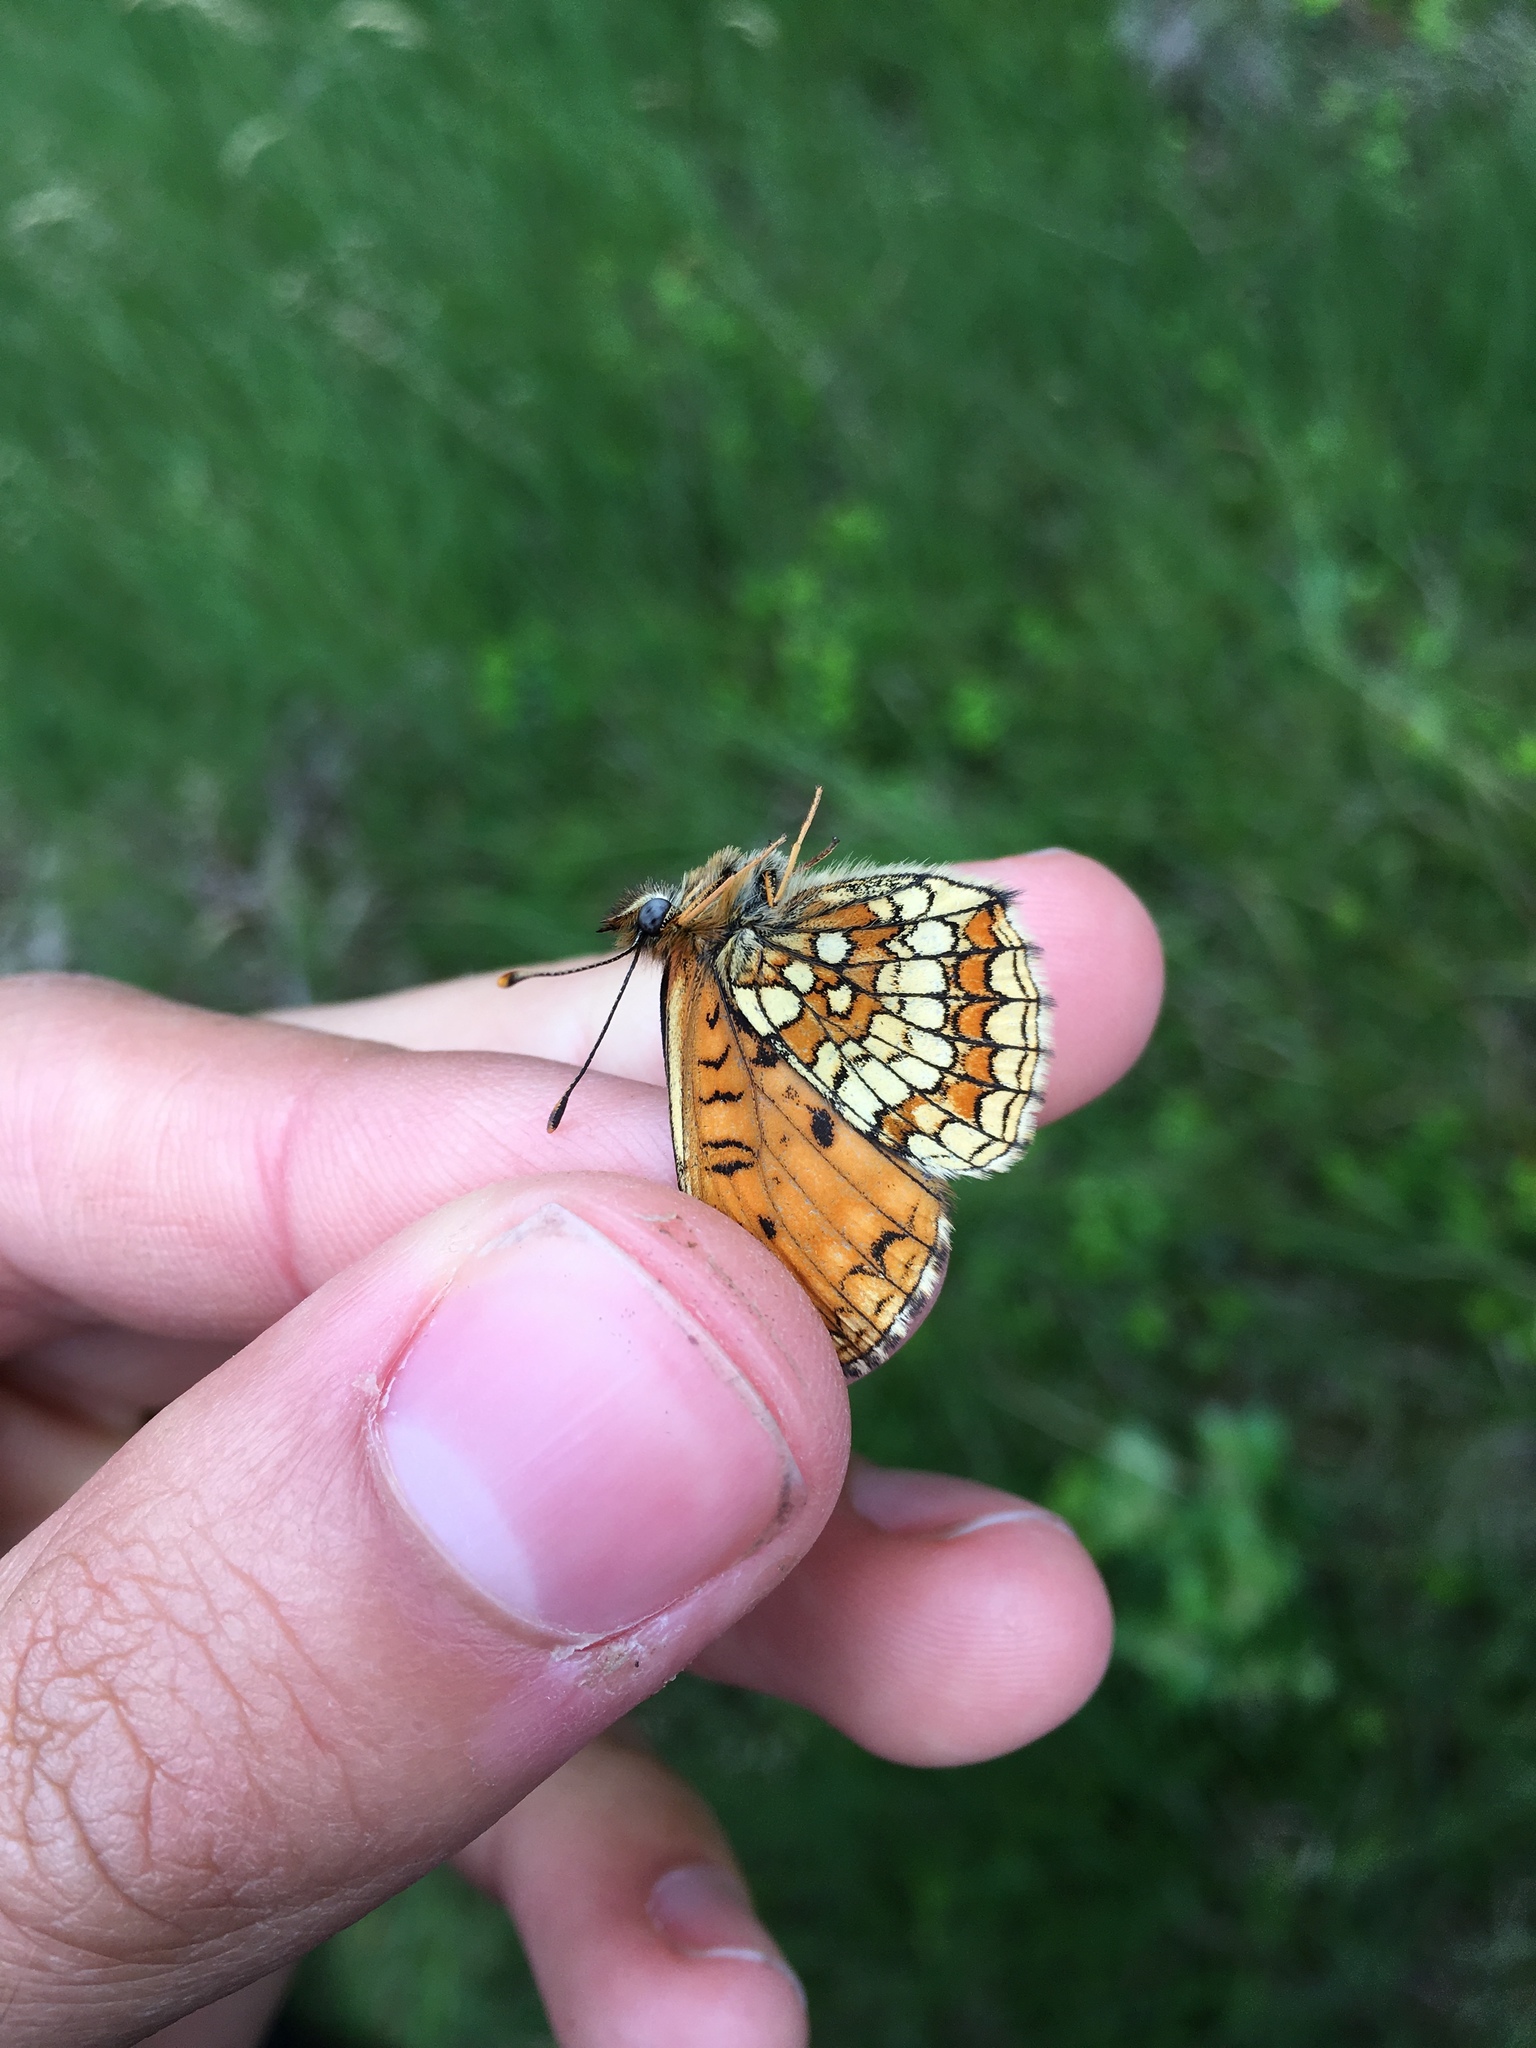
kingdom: Animalia
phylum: Arthropoda
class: Insecta
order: Lepidoptera
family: Nymphalidae
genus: Melitaea
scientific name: Melitaea athalia
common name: Heath fritillary
